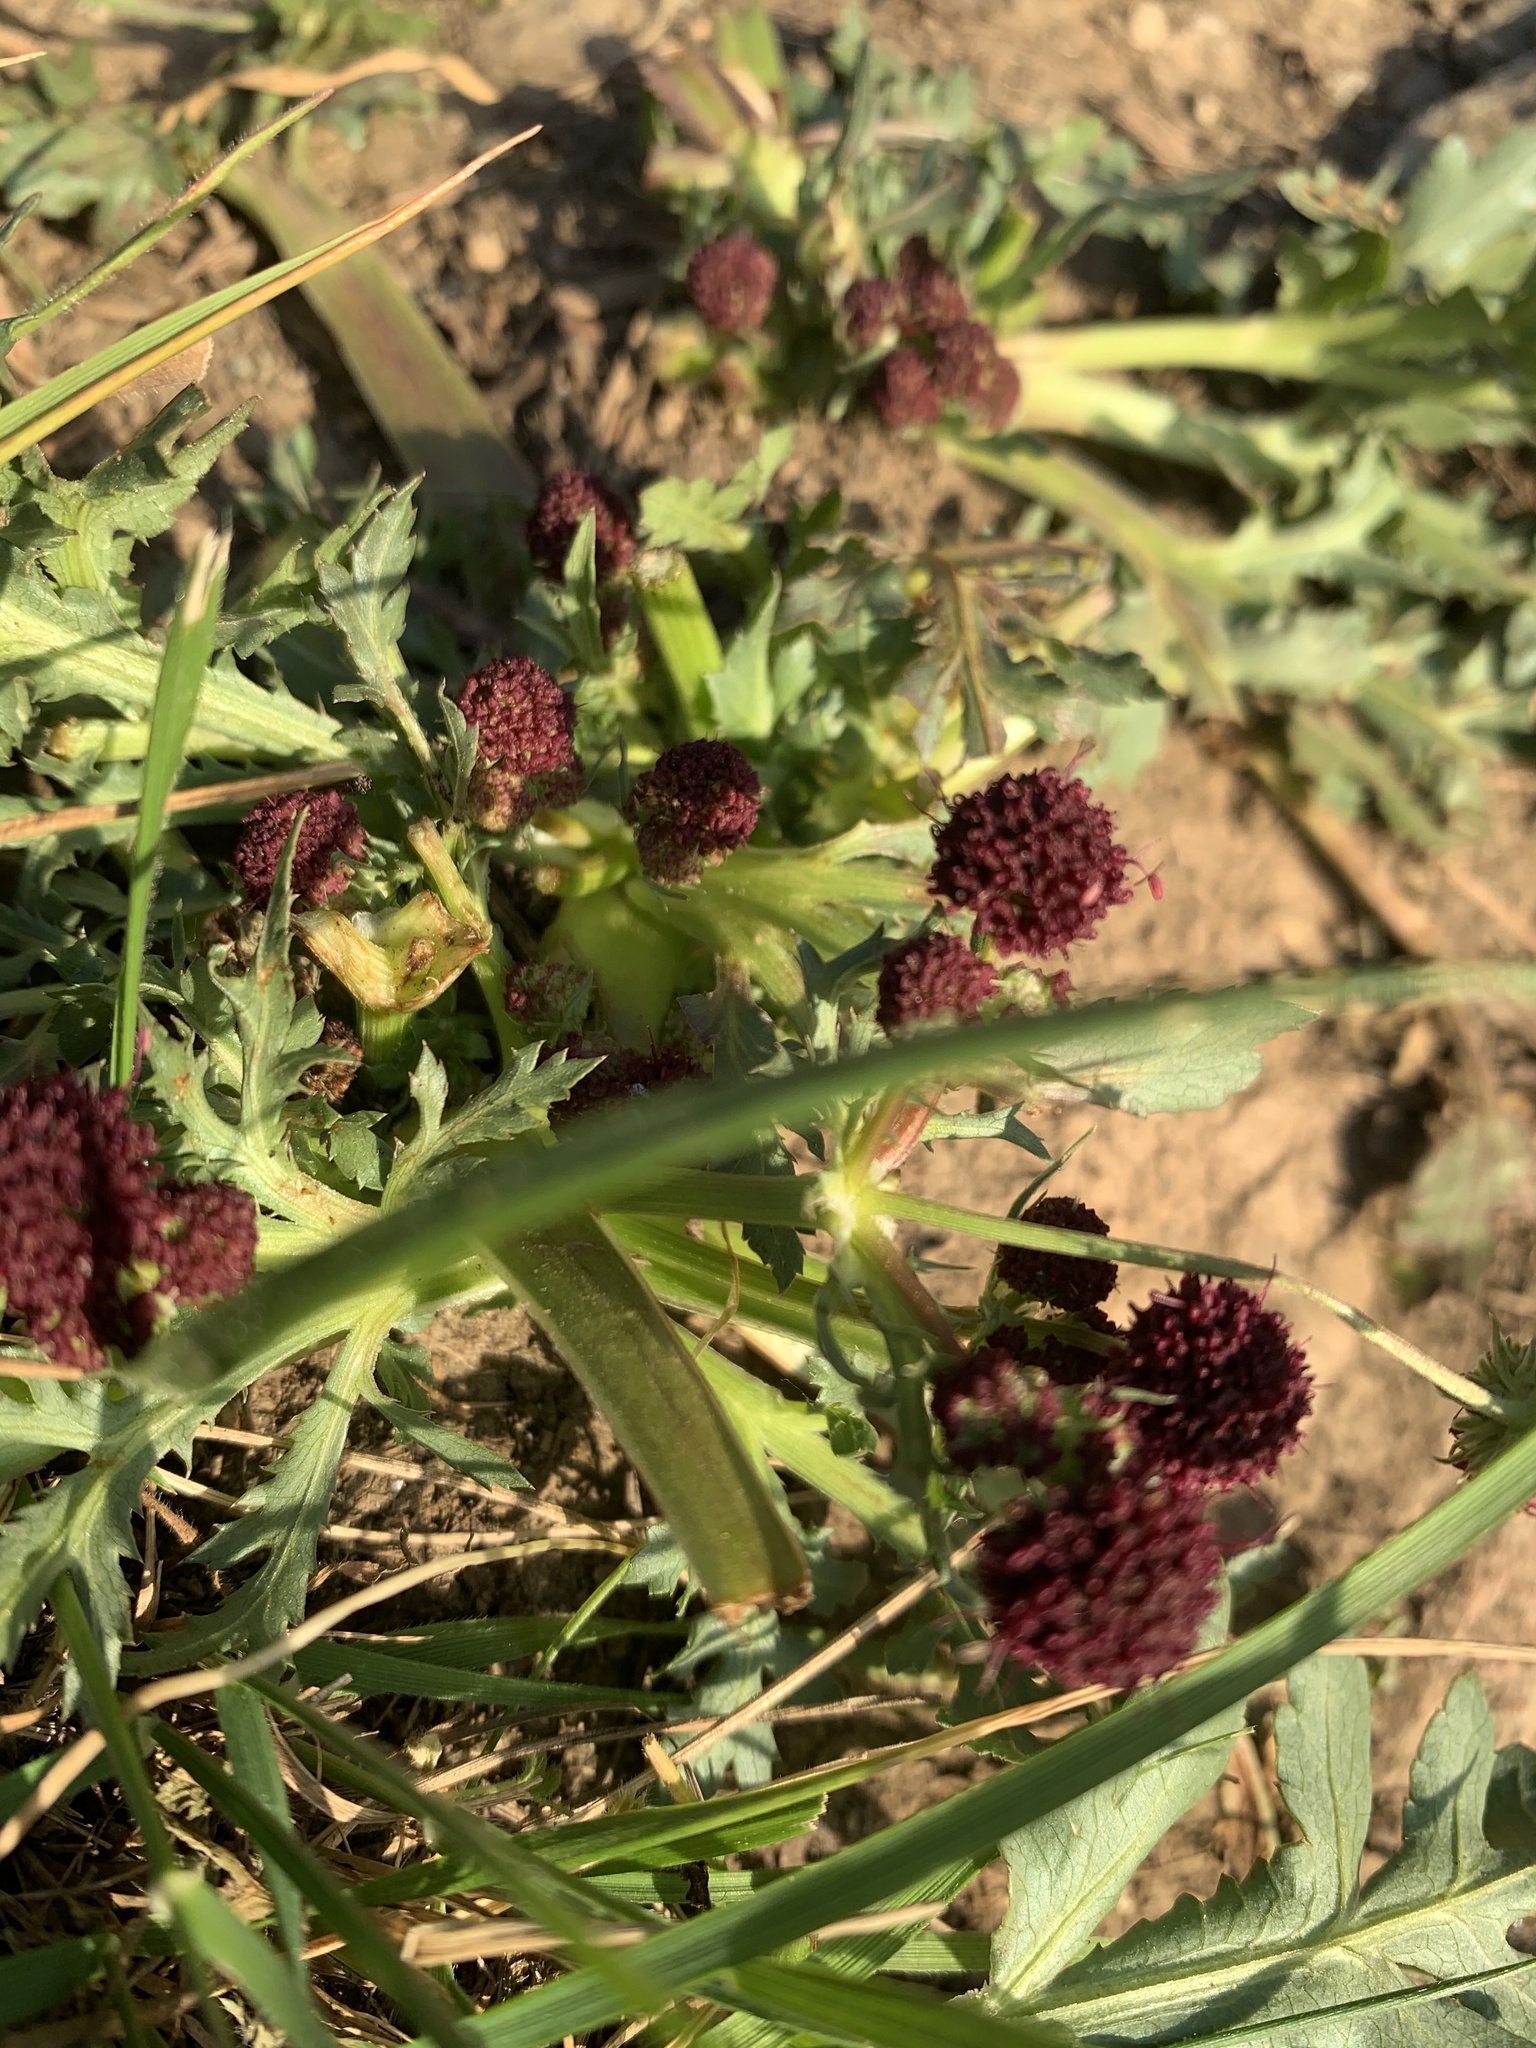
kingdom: Plantae
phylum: Tracheophyta
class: Magnoliopsida
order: Apiales
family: Apiaceae
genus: Sanicula
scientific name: Sanicula bipinnatifida
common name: Shoe-buttons
